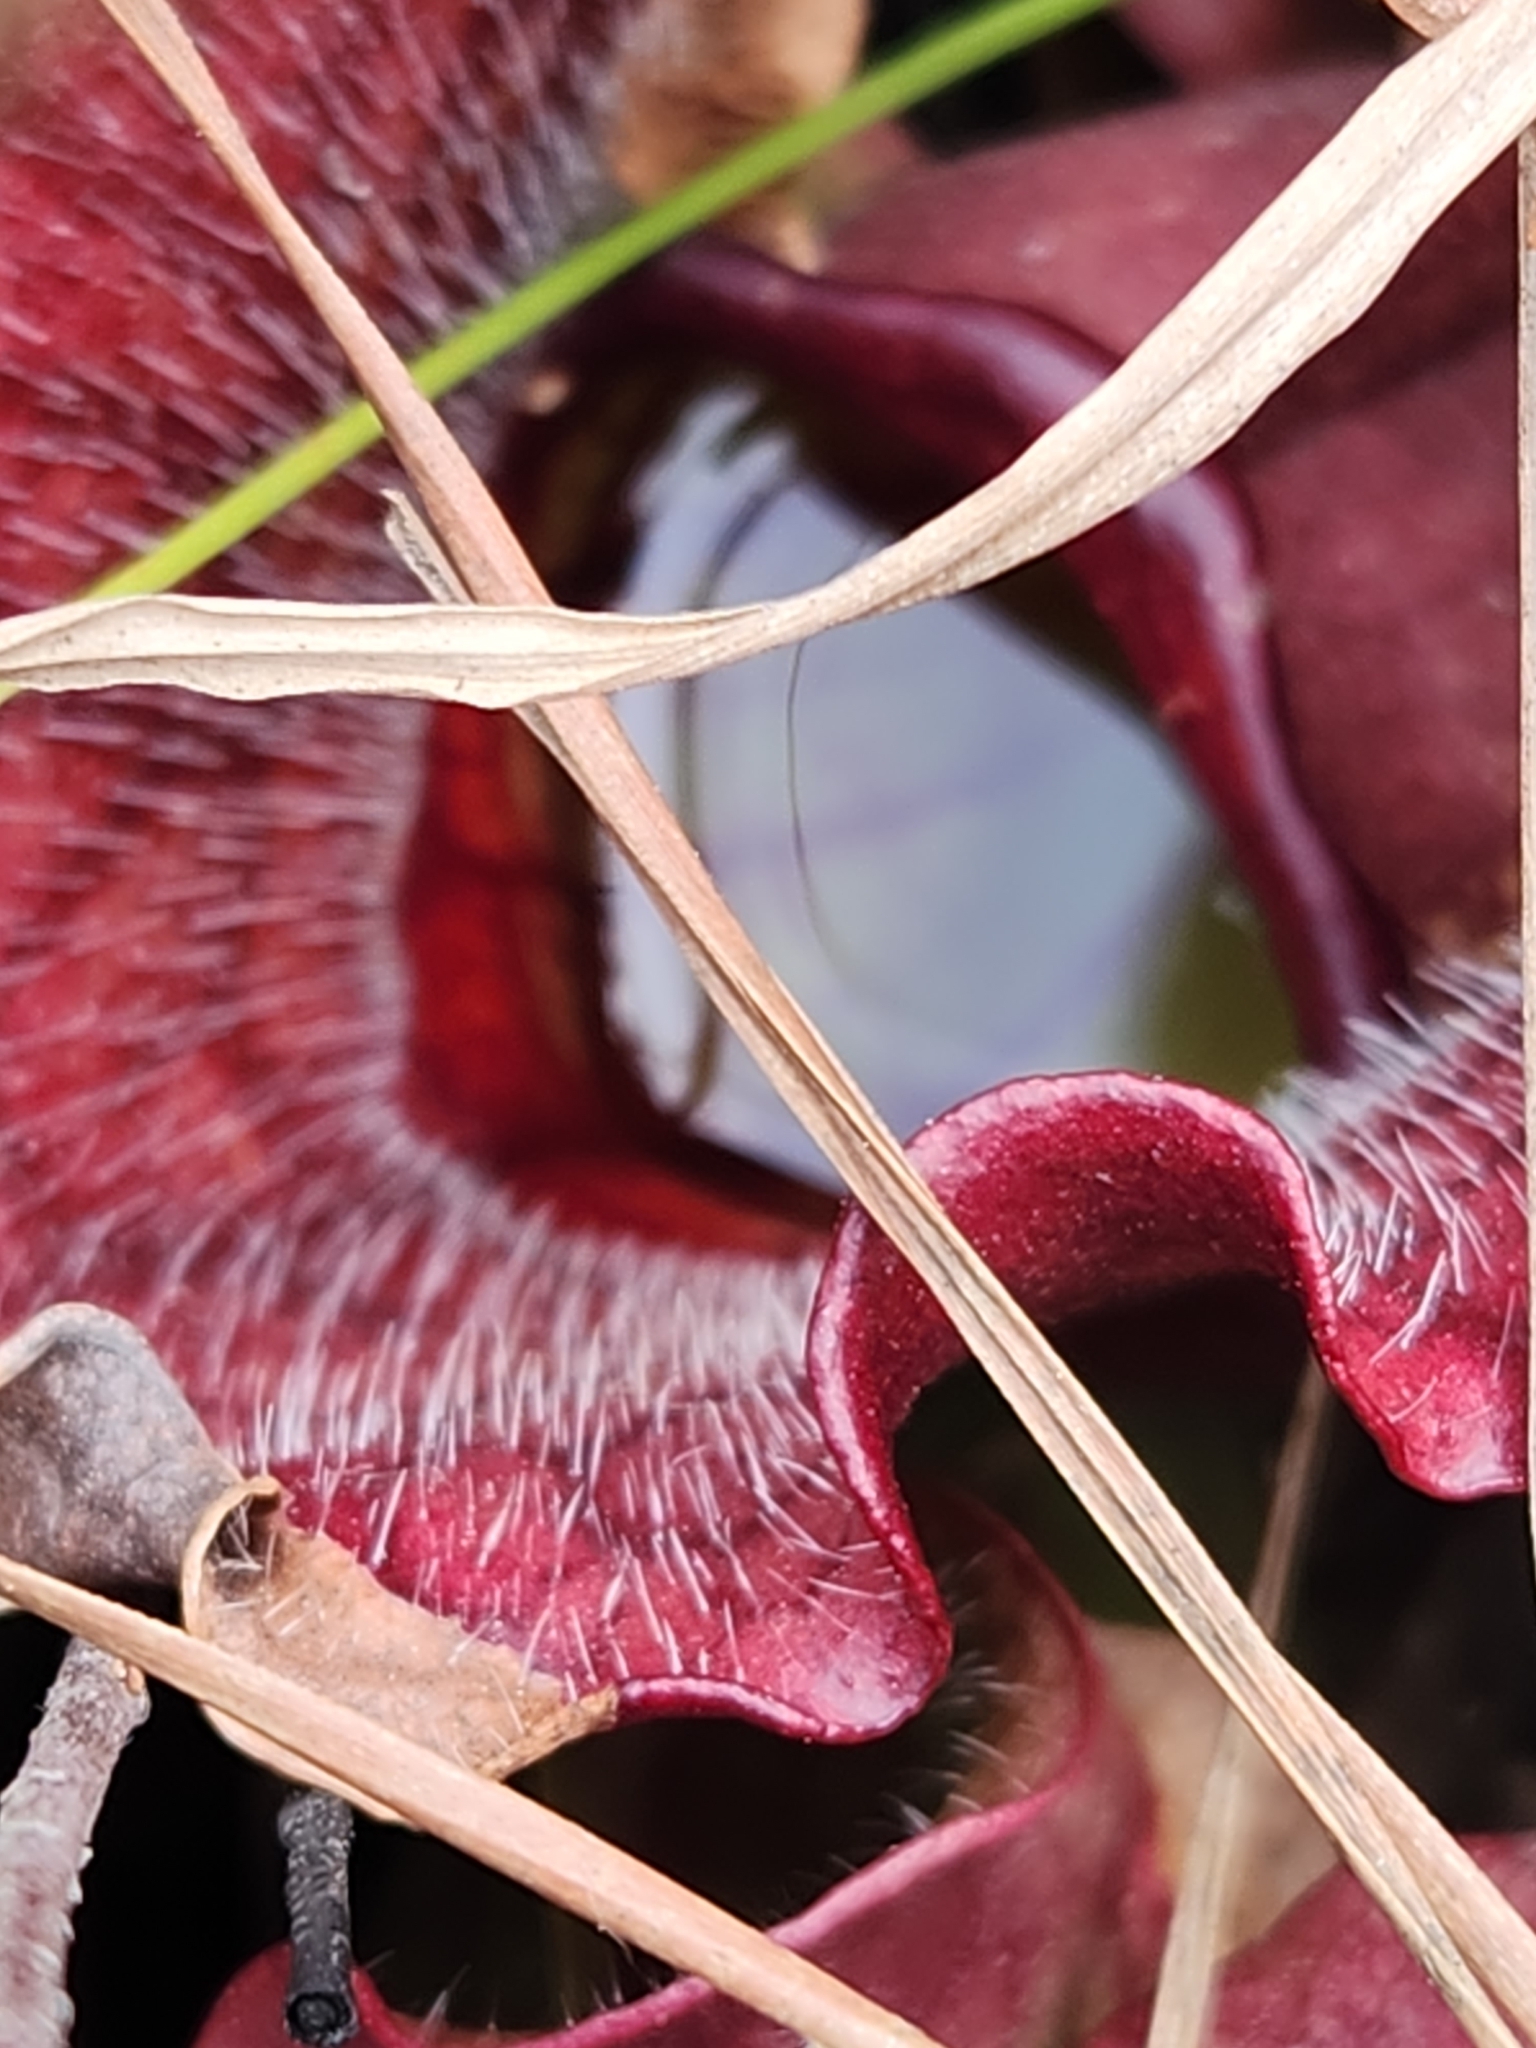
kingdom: Plantae
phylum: Tracheophyta
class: Magnoliopsida
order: Ericales
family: Sarraceniaceae
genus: Sarracenia
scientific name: Sarracenia purpurea
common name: Pitcherplant
